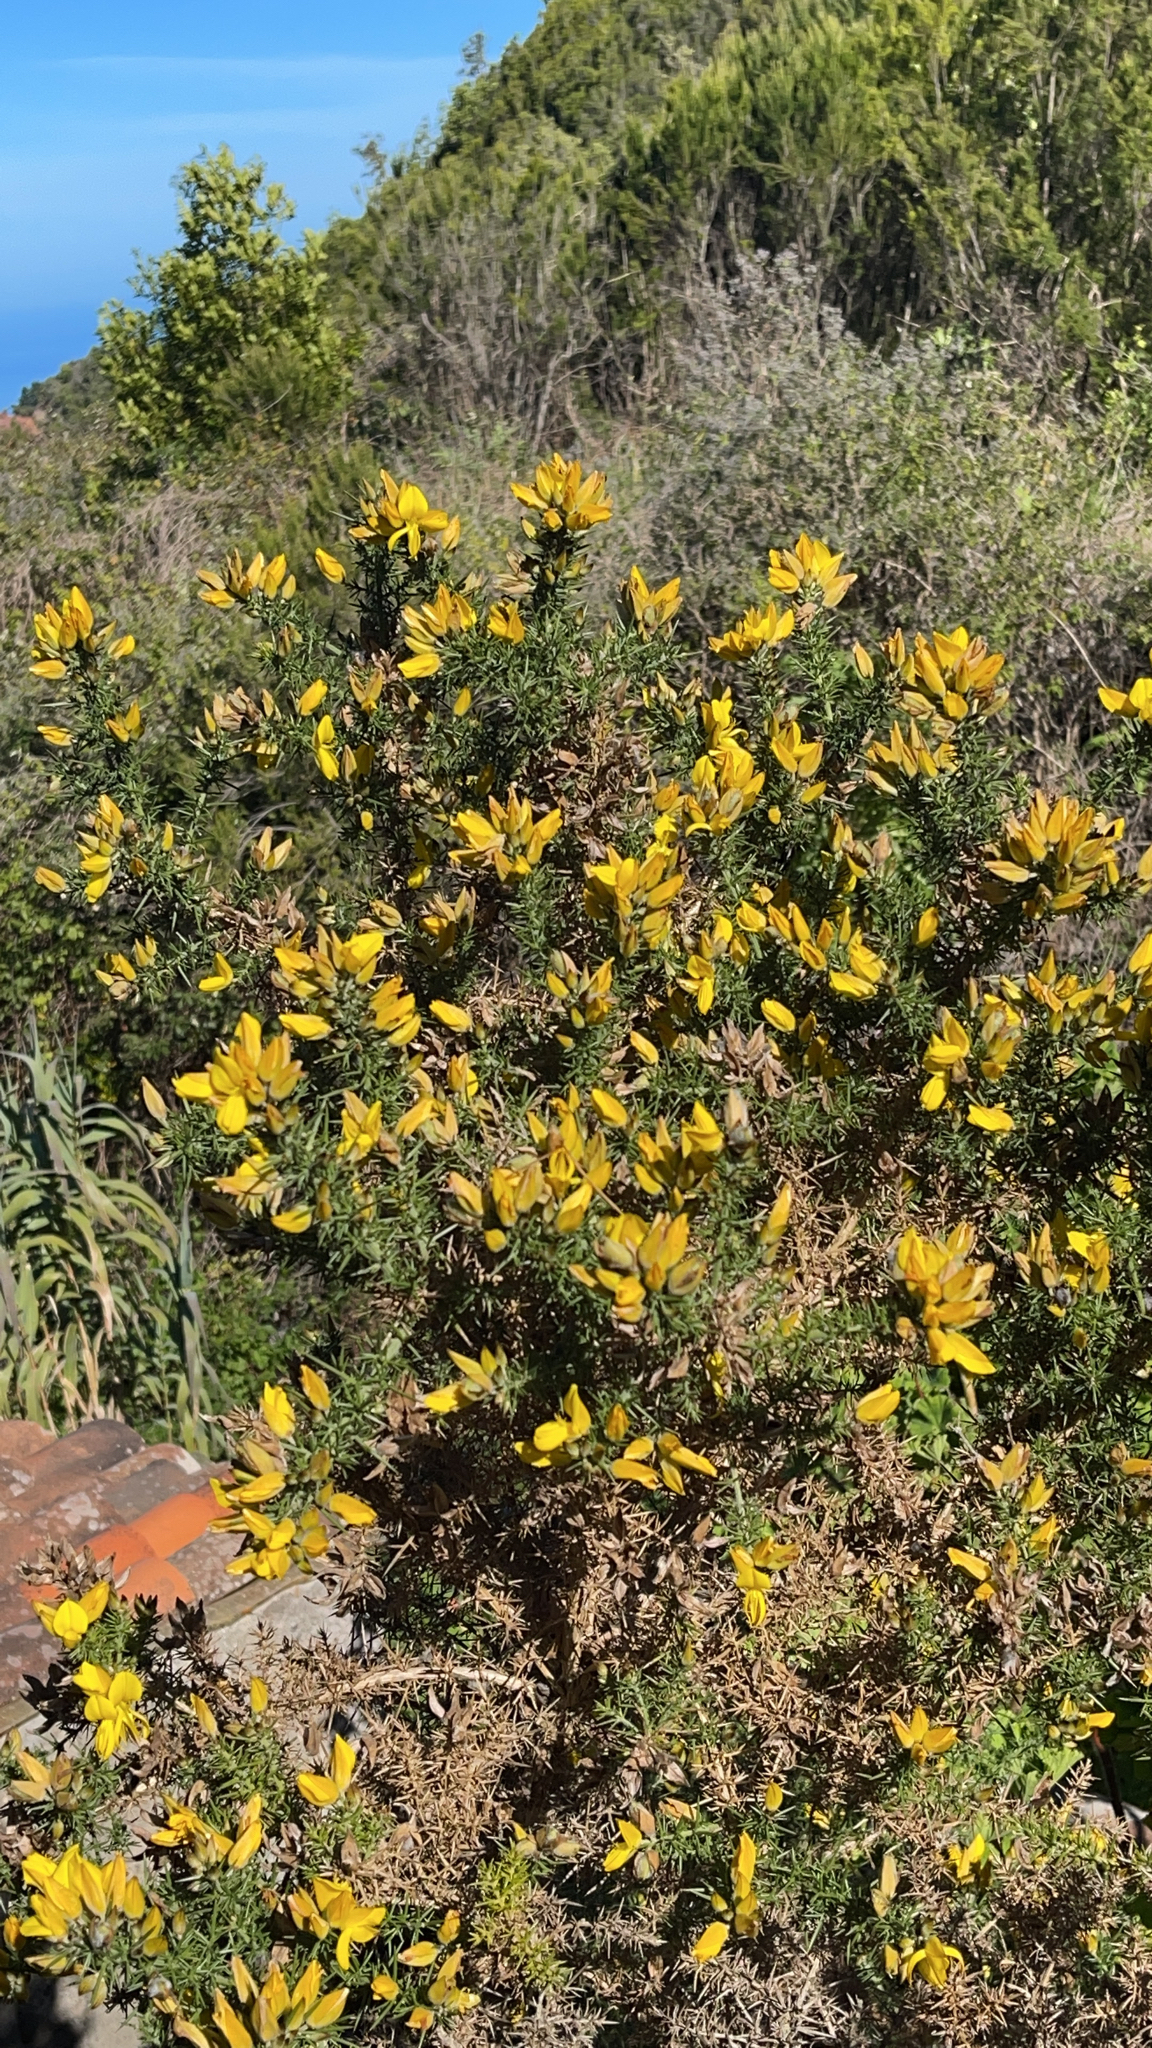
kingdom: Plantae
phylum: Tracheophyta
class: Magnoliopsida
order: Fabales
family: Fabaceae
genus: Ulex
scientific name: Ulex europaeus
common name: Common gorse
